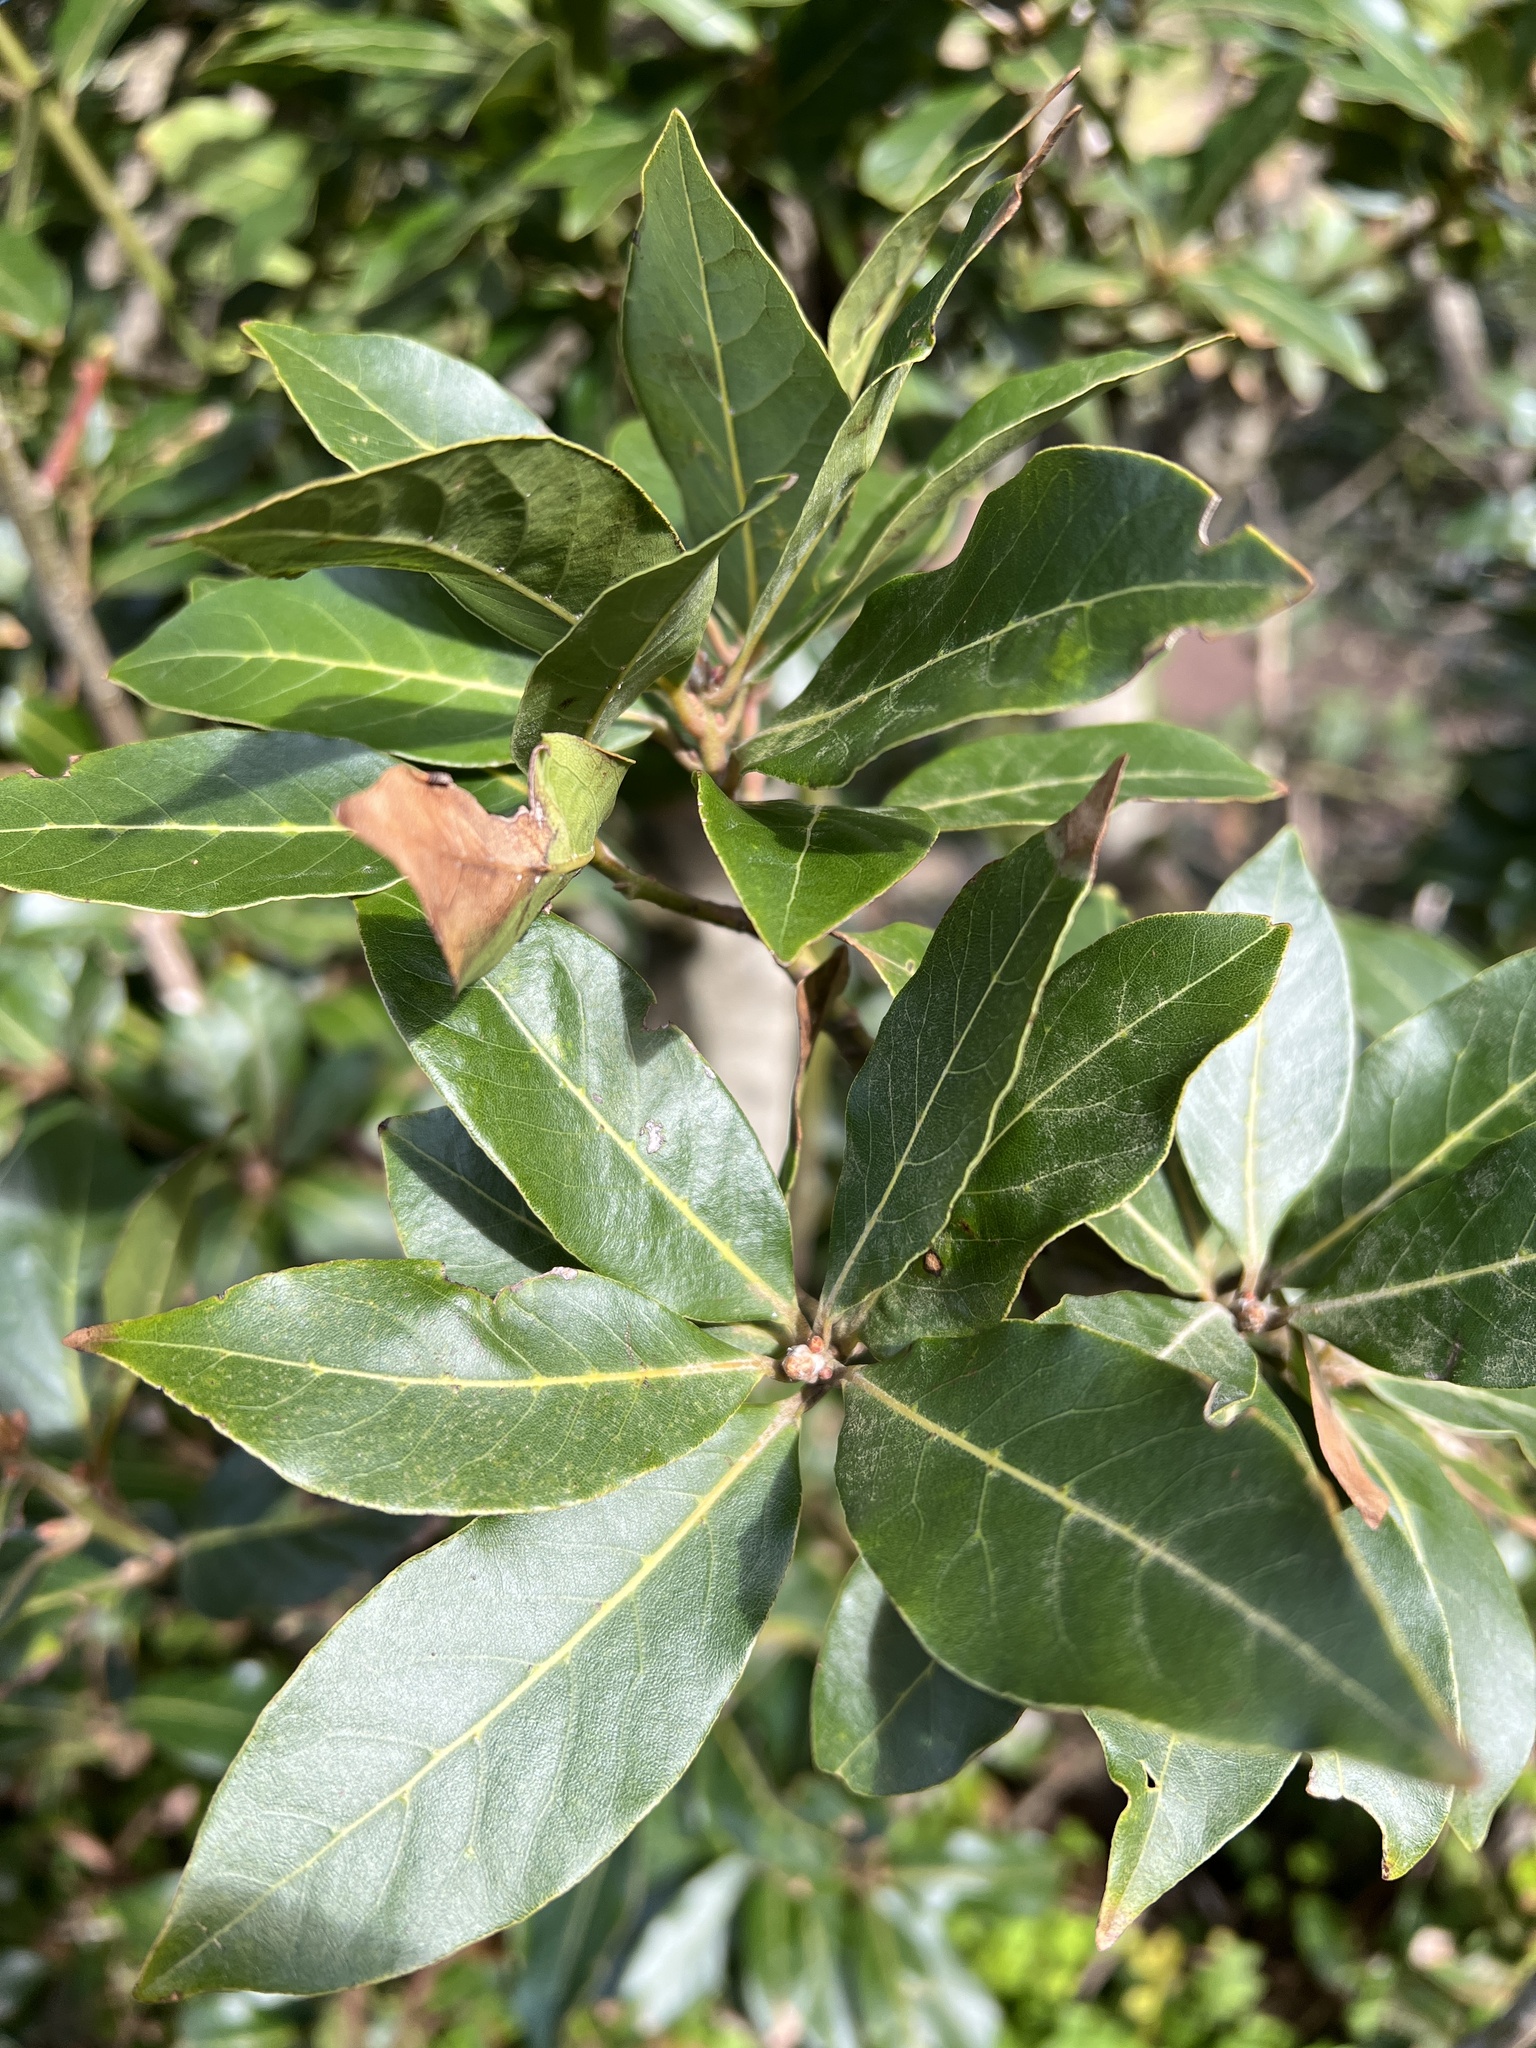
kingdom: Plantae
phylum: Tracheophyta
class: Magnoliopsida
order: Laurales
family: Lauraceae
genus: Laurus
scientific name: Laurus novocanariensis
